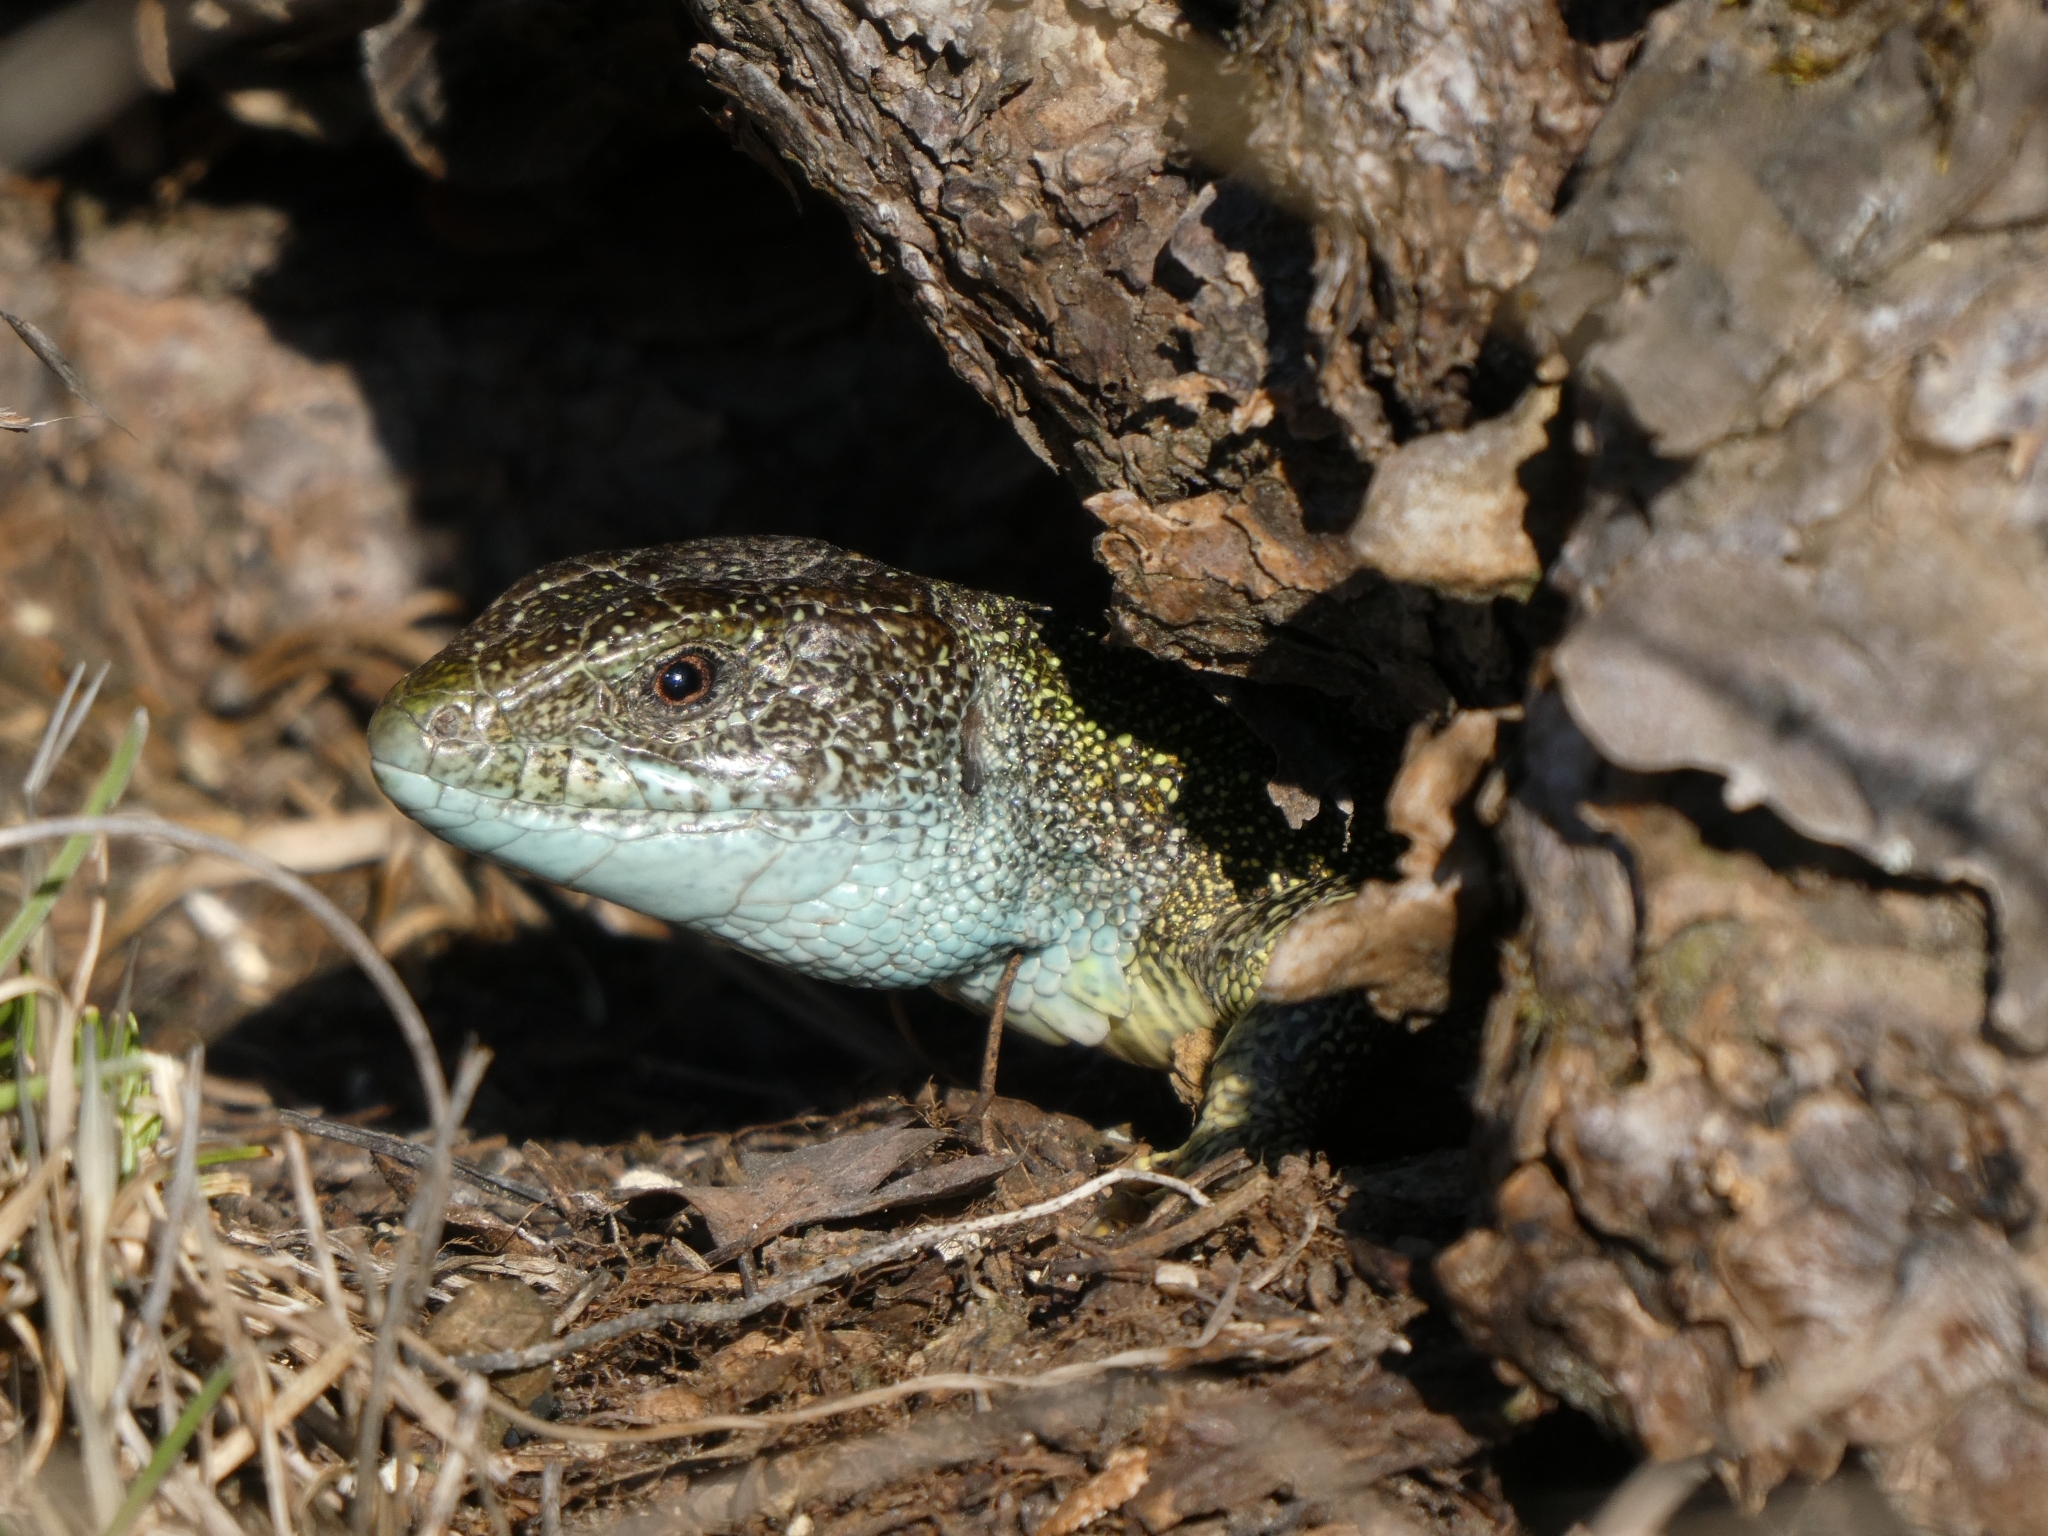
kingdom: Animalia
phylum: Chordata
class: Squamata
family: Lacertidae
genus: Lacerta
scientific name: Lacerta viridis
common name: European green lizard
